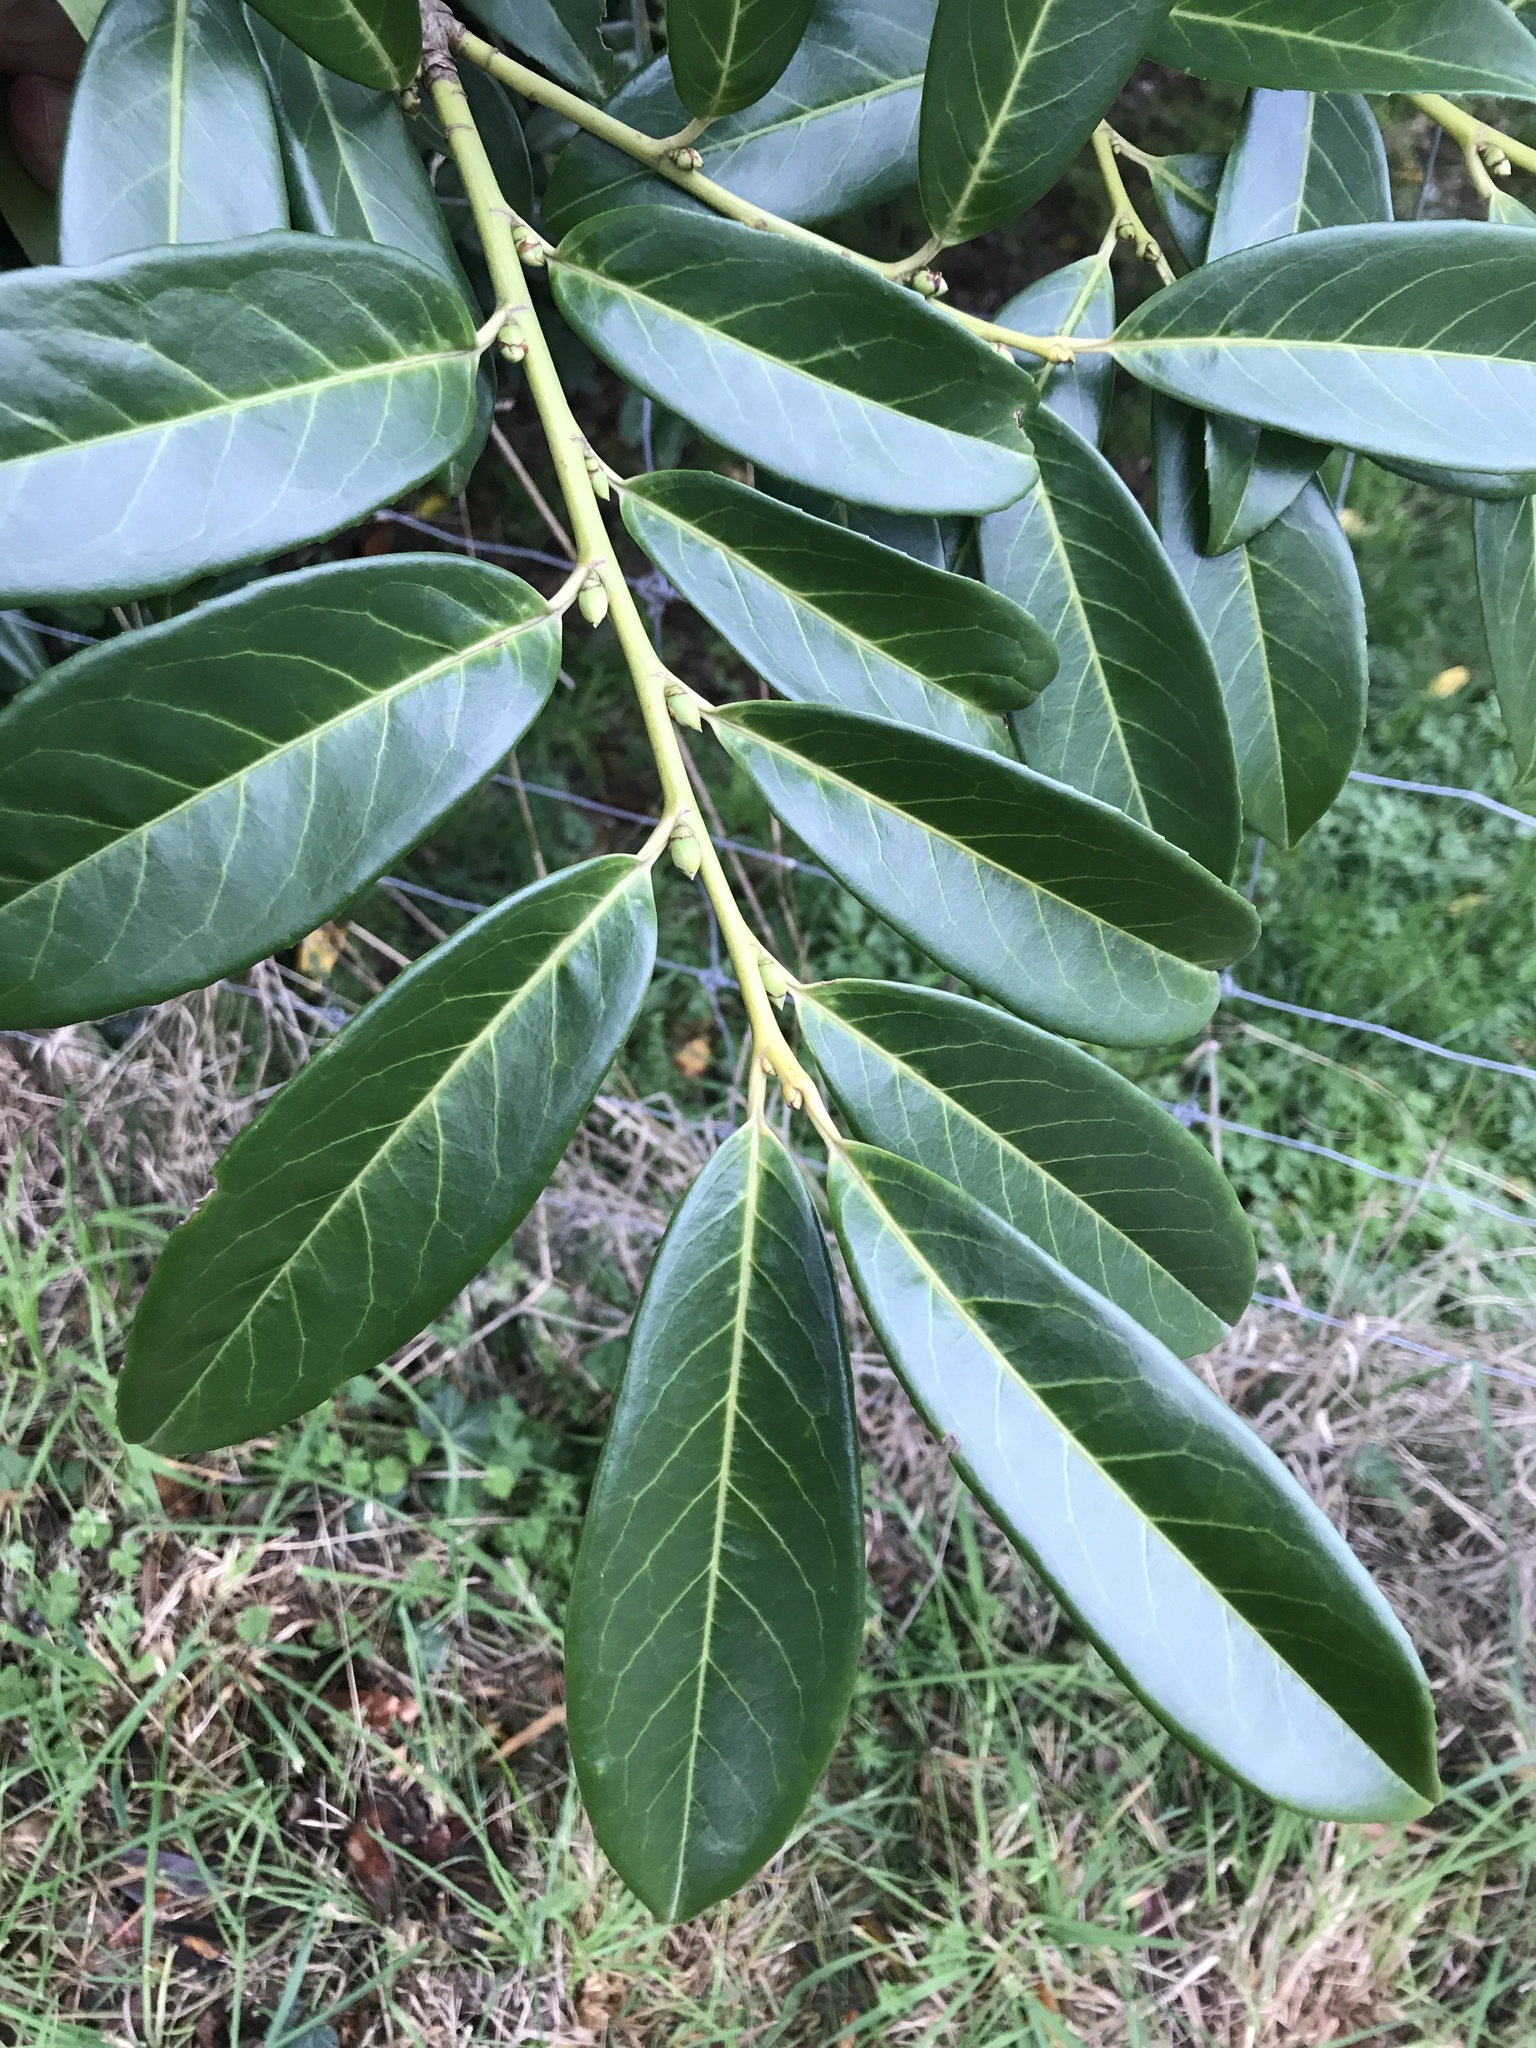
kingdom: Plantae
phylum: Tracheophyta
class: Magnoliopsida
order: Rosales
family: Rosaceae
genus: Prunus
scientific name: Prunus laurocerasus
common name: Cherry laurel
